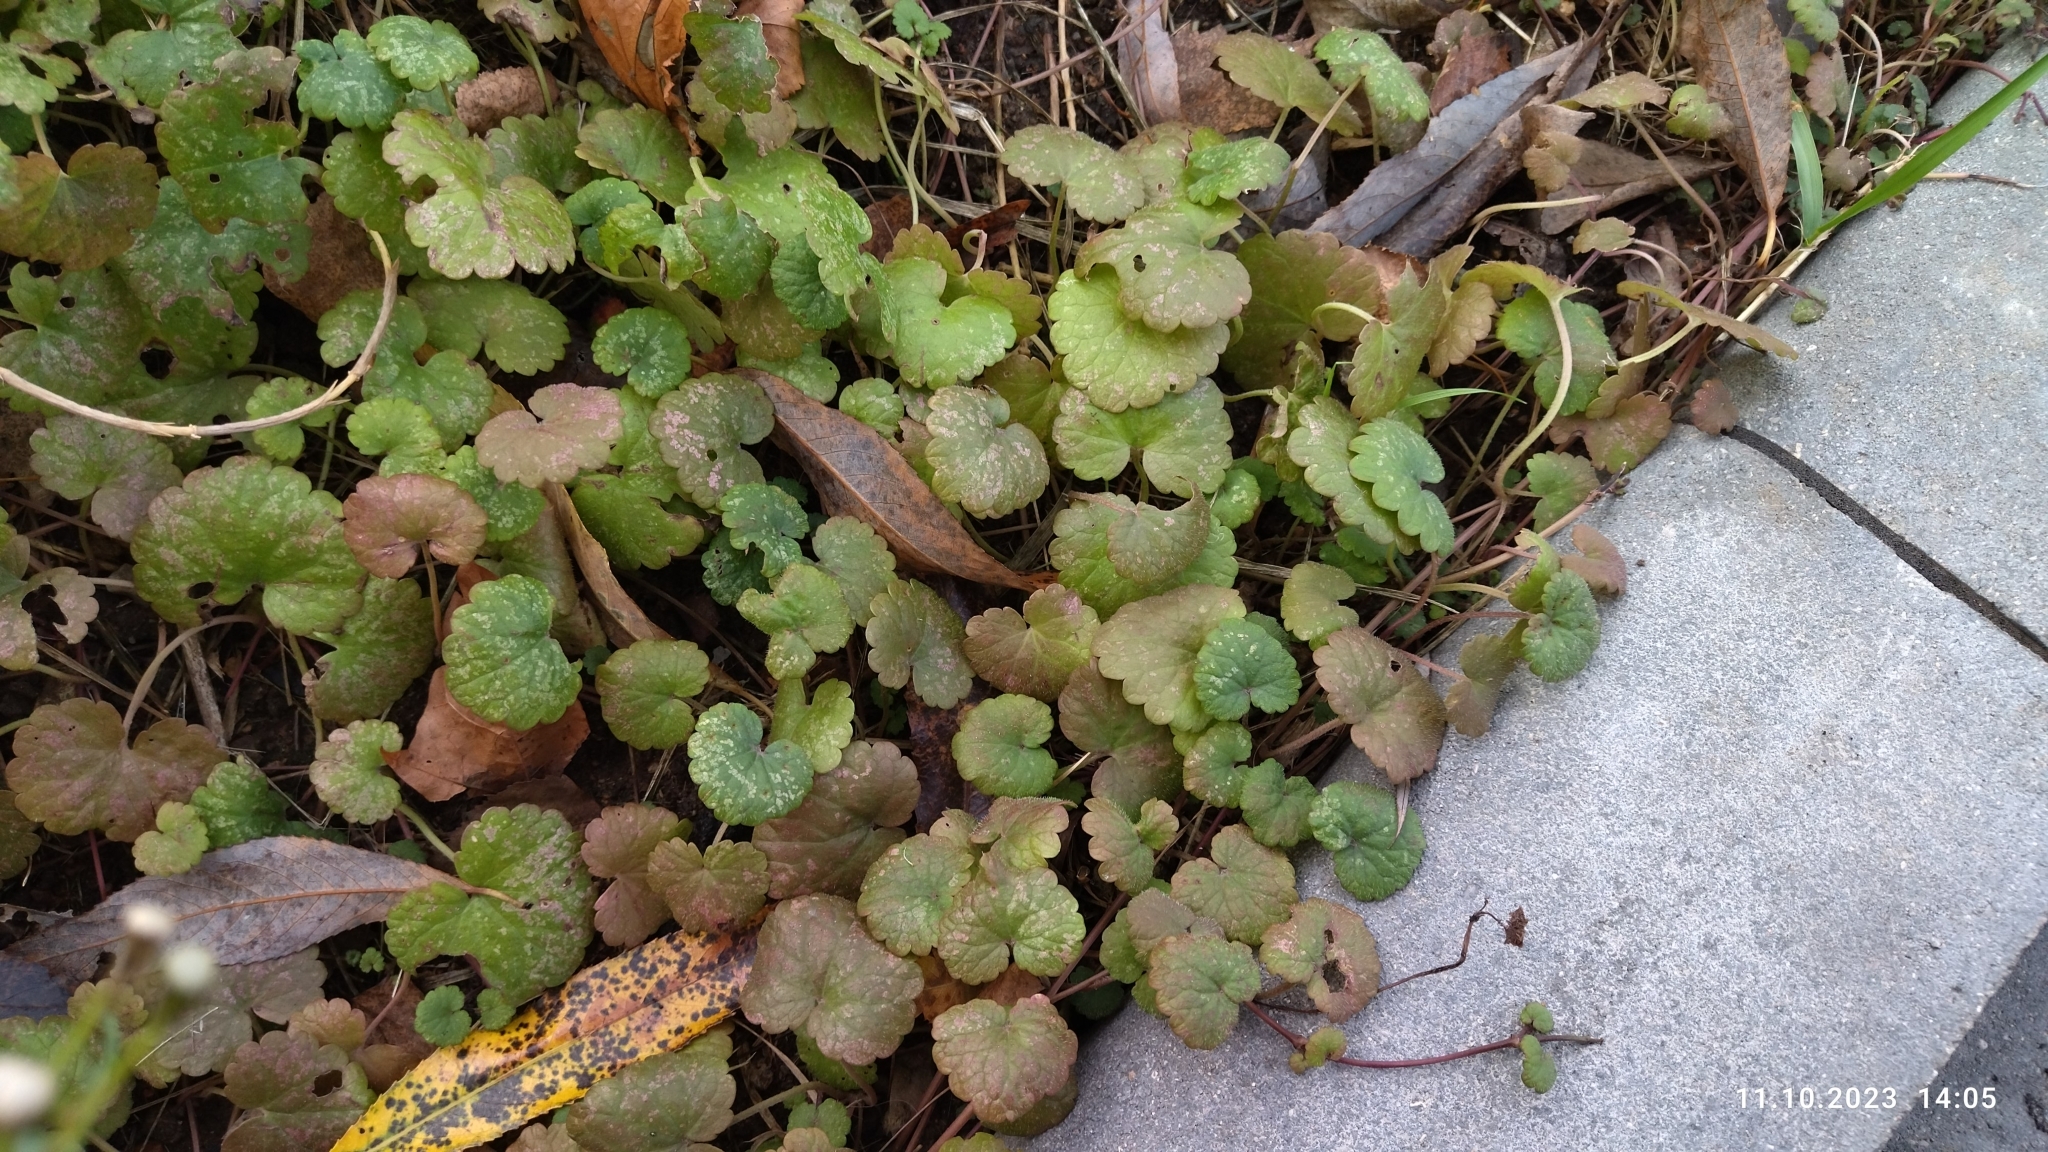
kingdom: Plantae
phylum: Tracheophyta
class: Magnoliopsida
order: Lamiales
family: Lamiaceae
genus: Glechoma
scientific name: Glechoma hederacea
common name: Ground ivy
